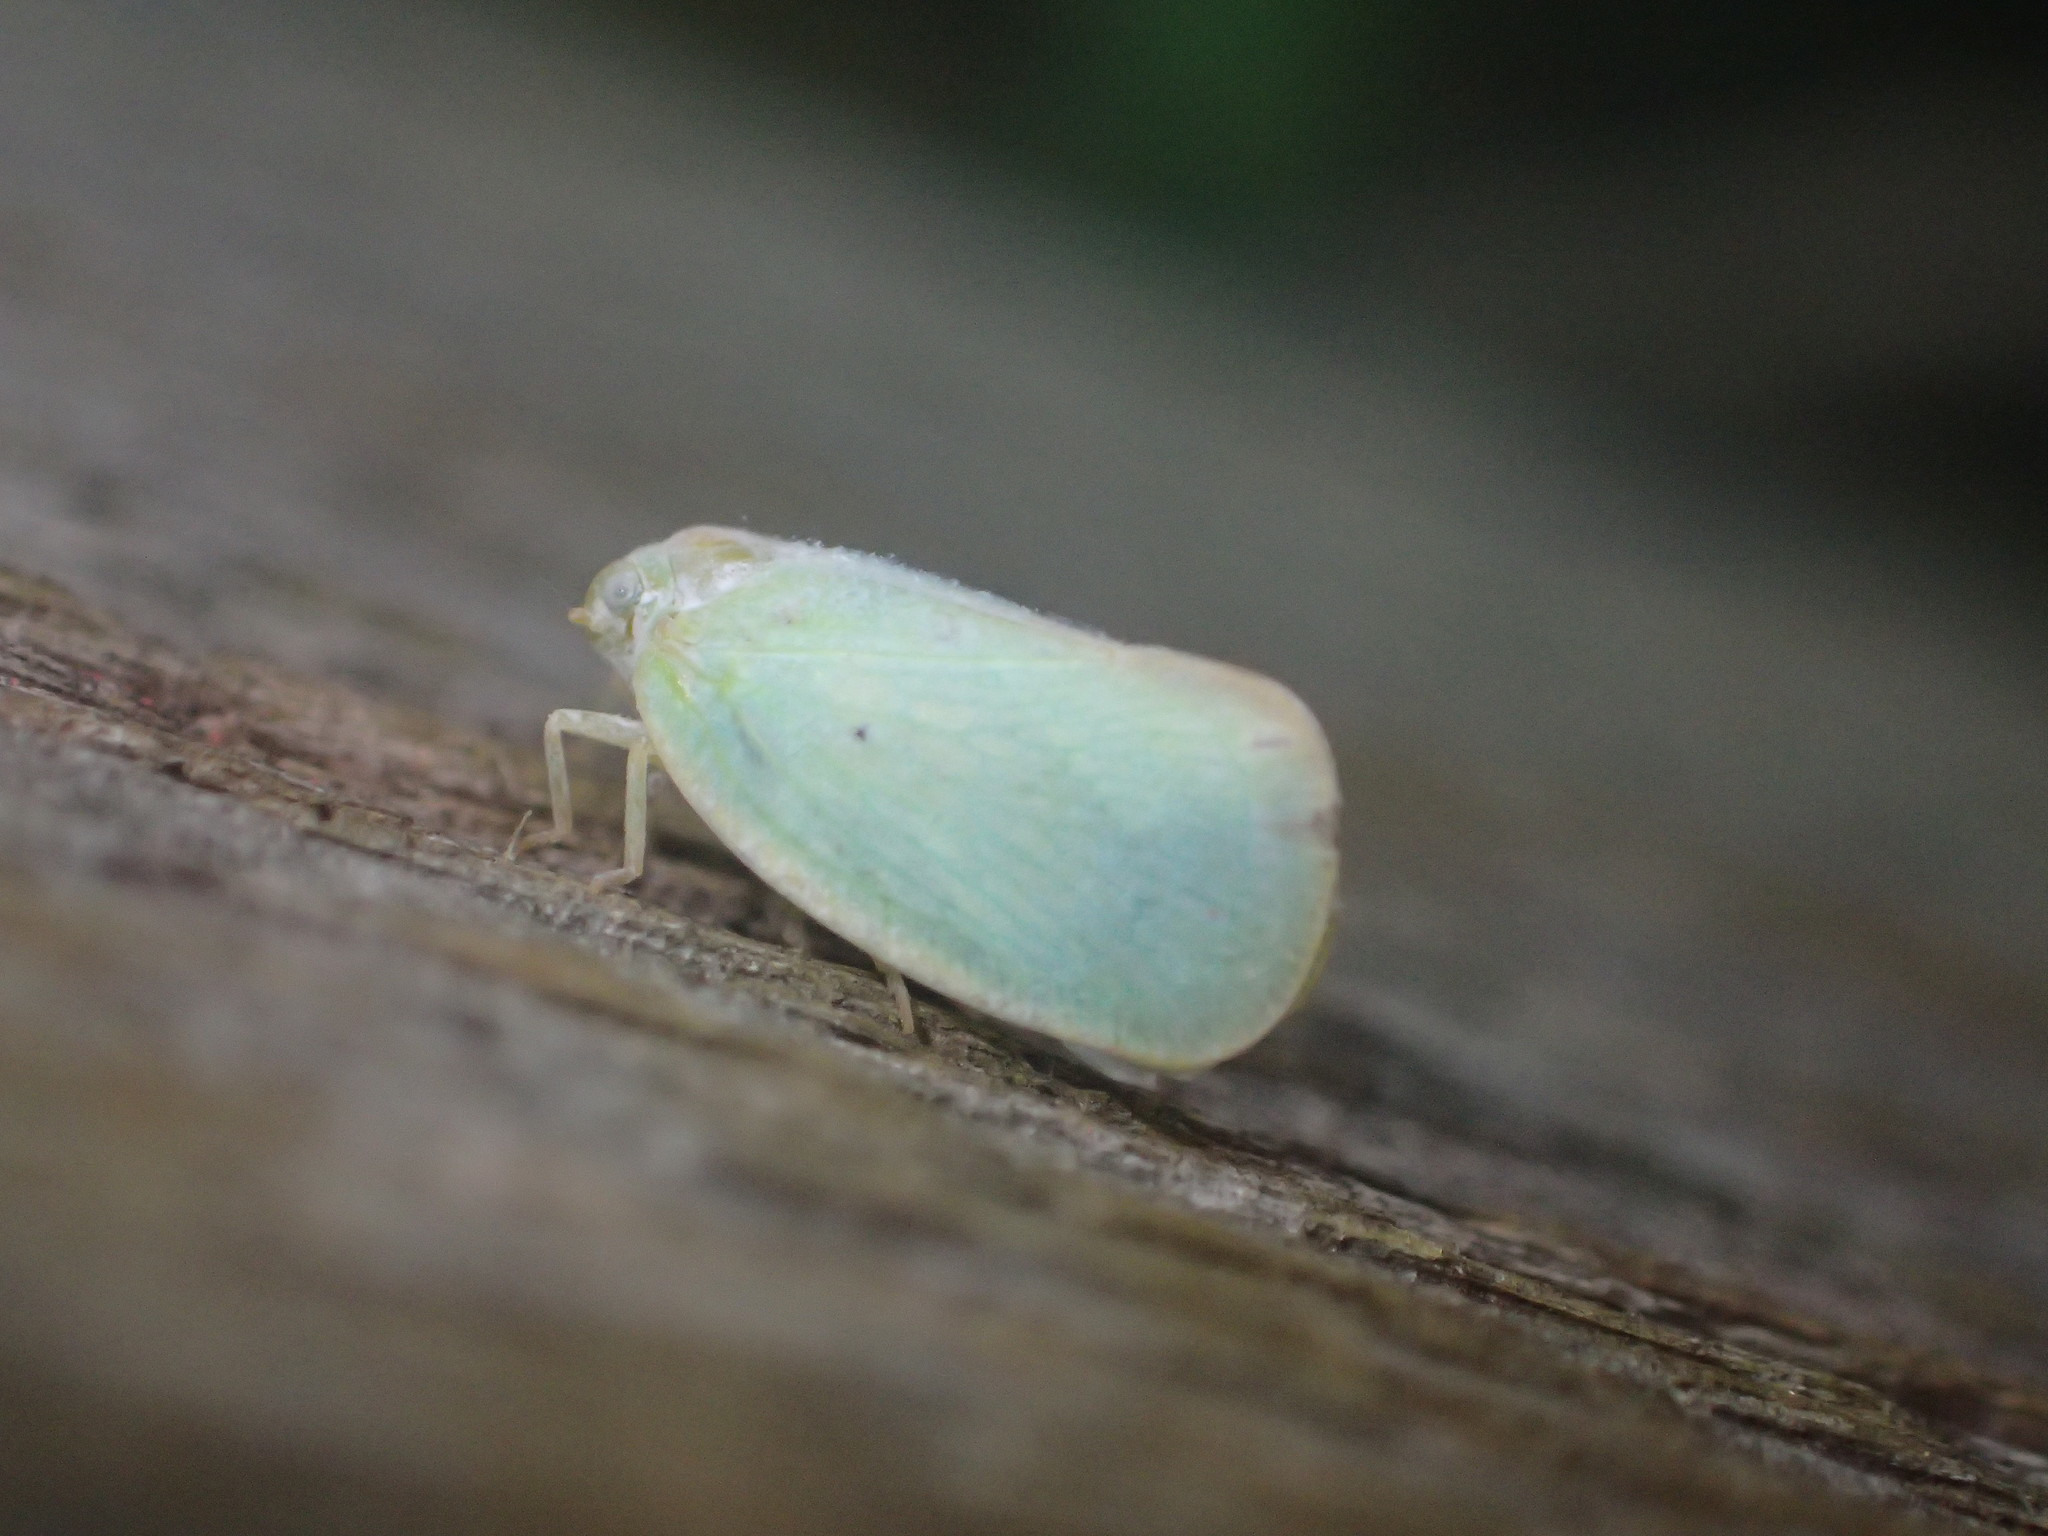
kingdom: Animalia
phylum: Arthropoda
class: Insecta
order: Hemiptera
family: Flatidae
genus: Ormenoides
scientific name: Ormenoides venusta
